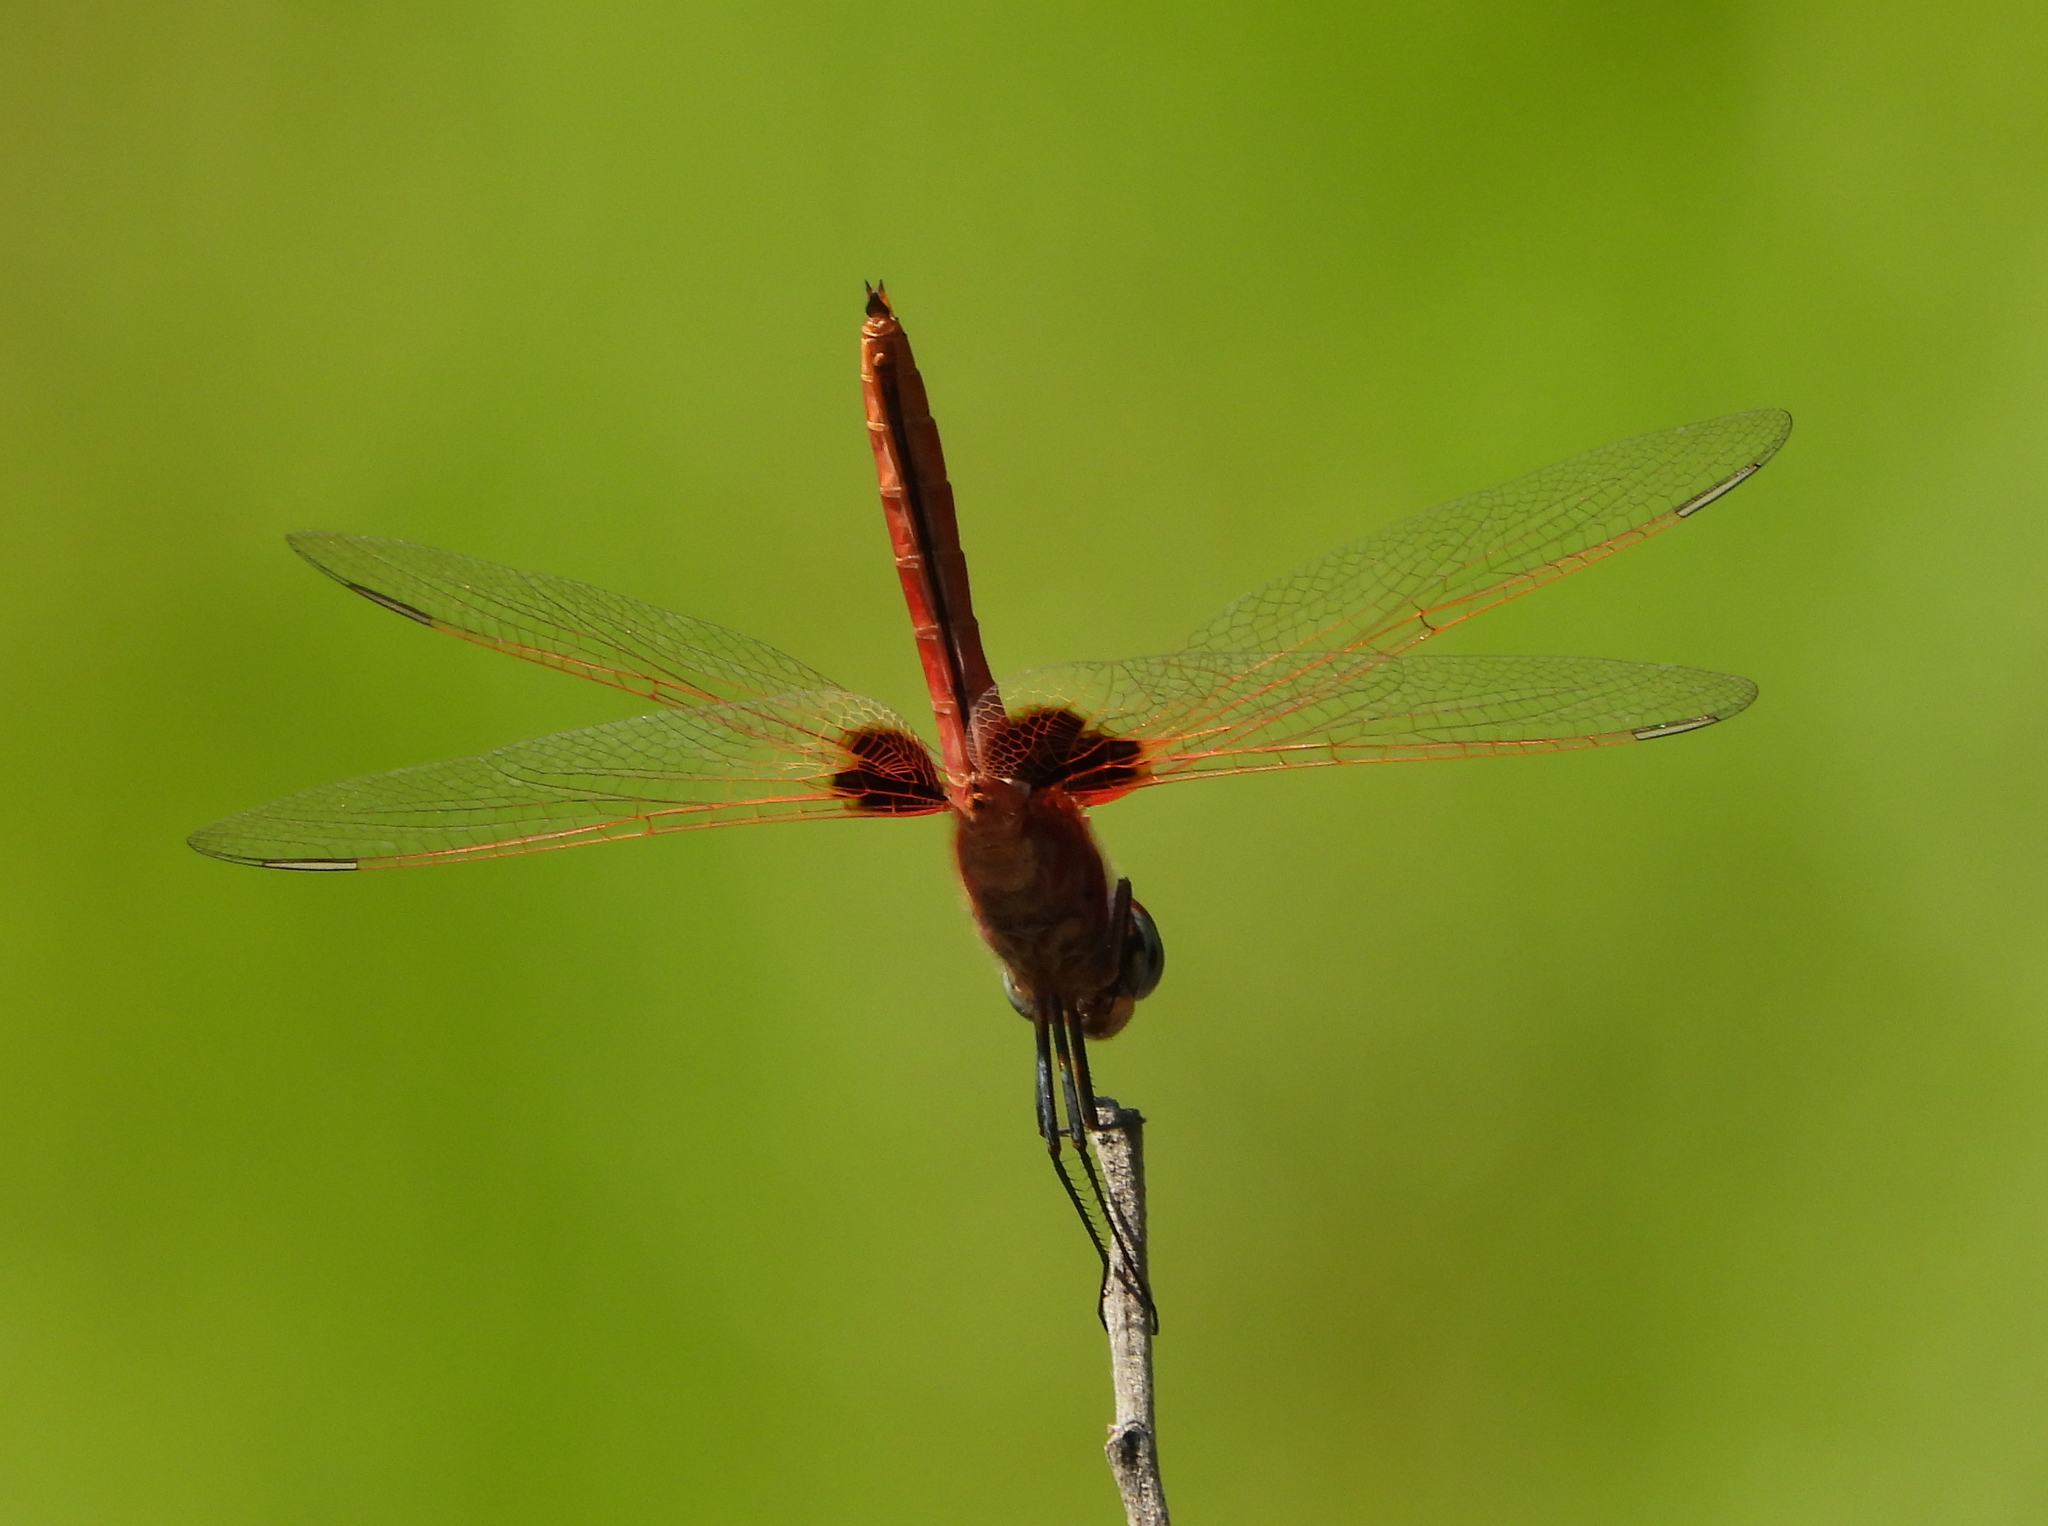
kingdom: Animalia
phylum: Arthropoda
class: Insecta
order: Odonata
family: Libellulidae
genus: Urothemis
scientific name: Urothemis assignata
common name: Red basker
